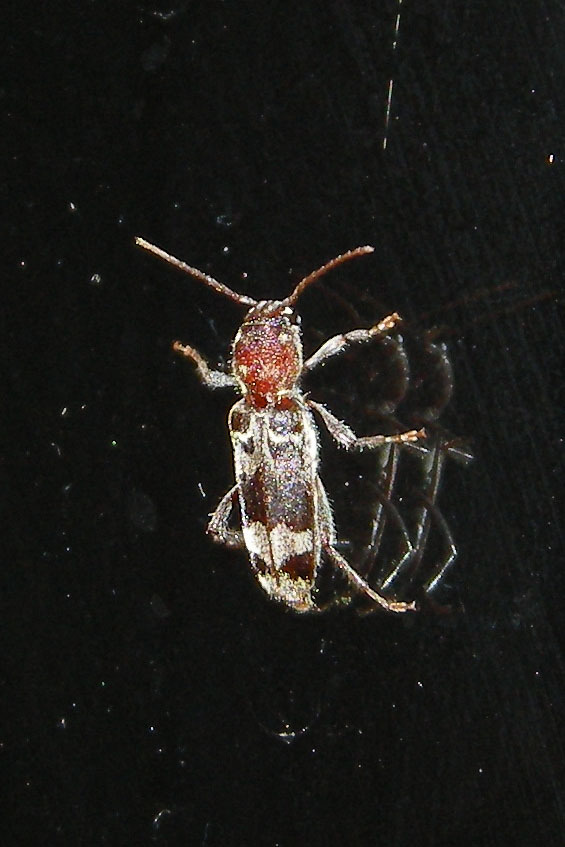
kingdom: Animalia
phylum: Arthropoda
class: Insecta
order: Coleoptera
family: Cerambycidae
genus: Xylotrechus
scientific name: Xylotrechus colonus
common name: Long-horned beetle
